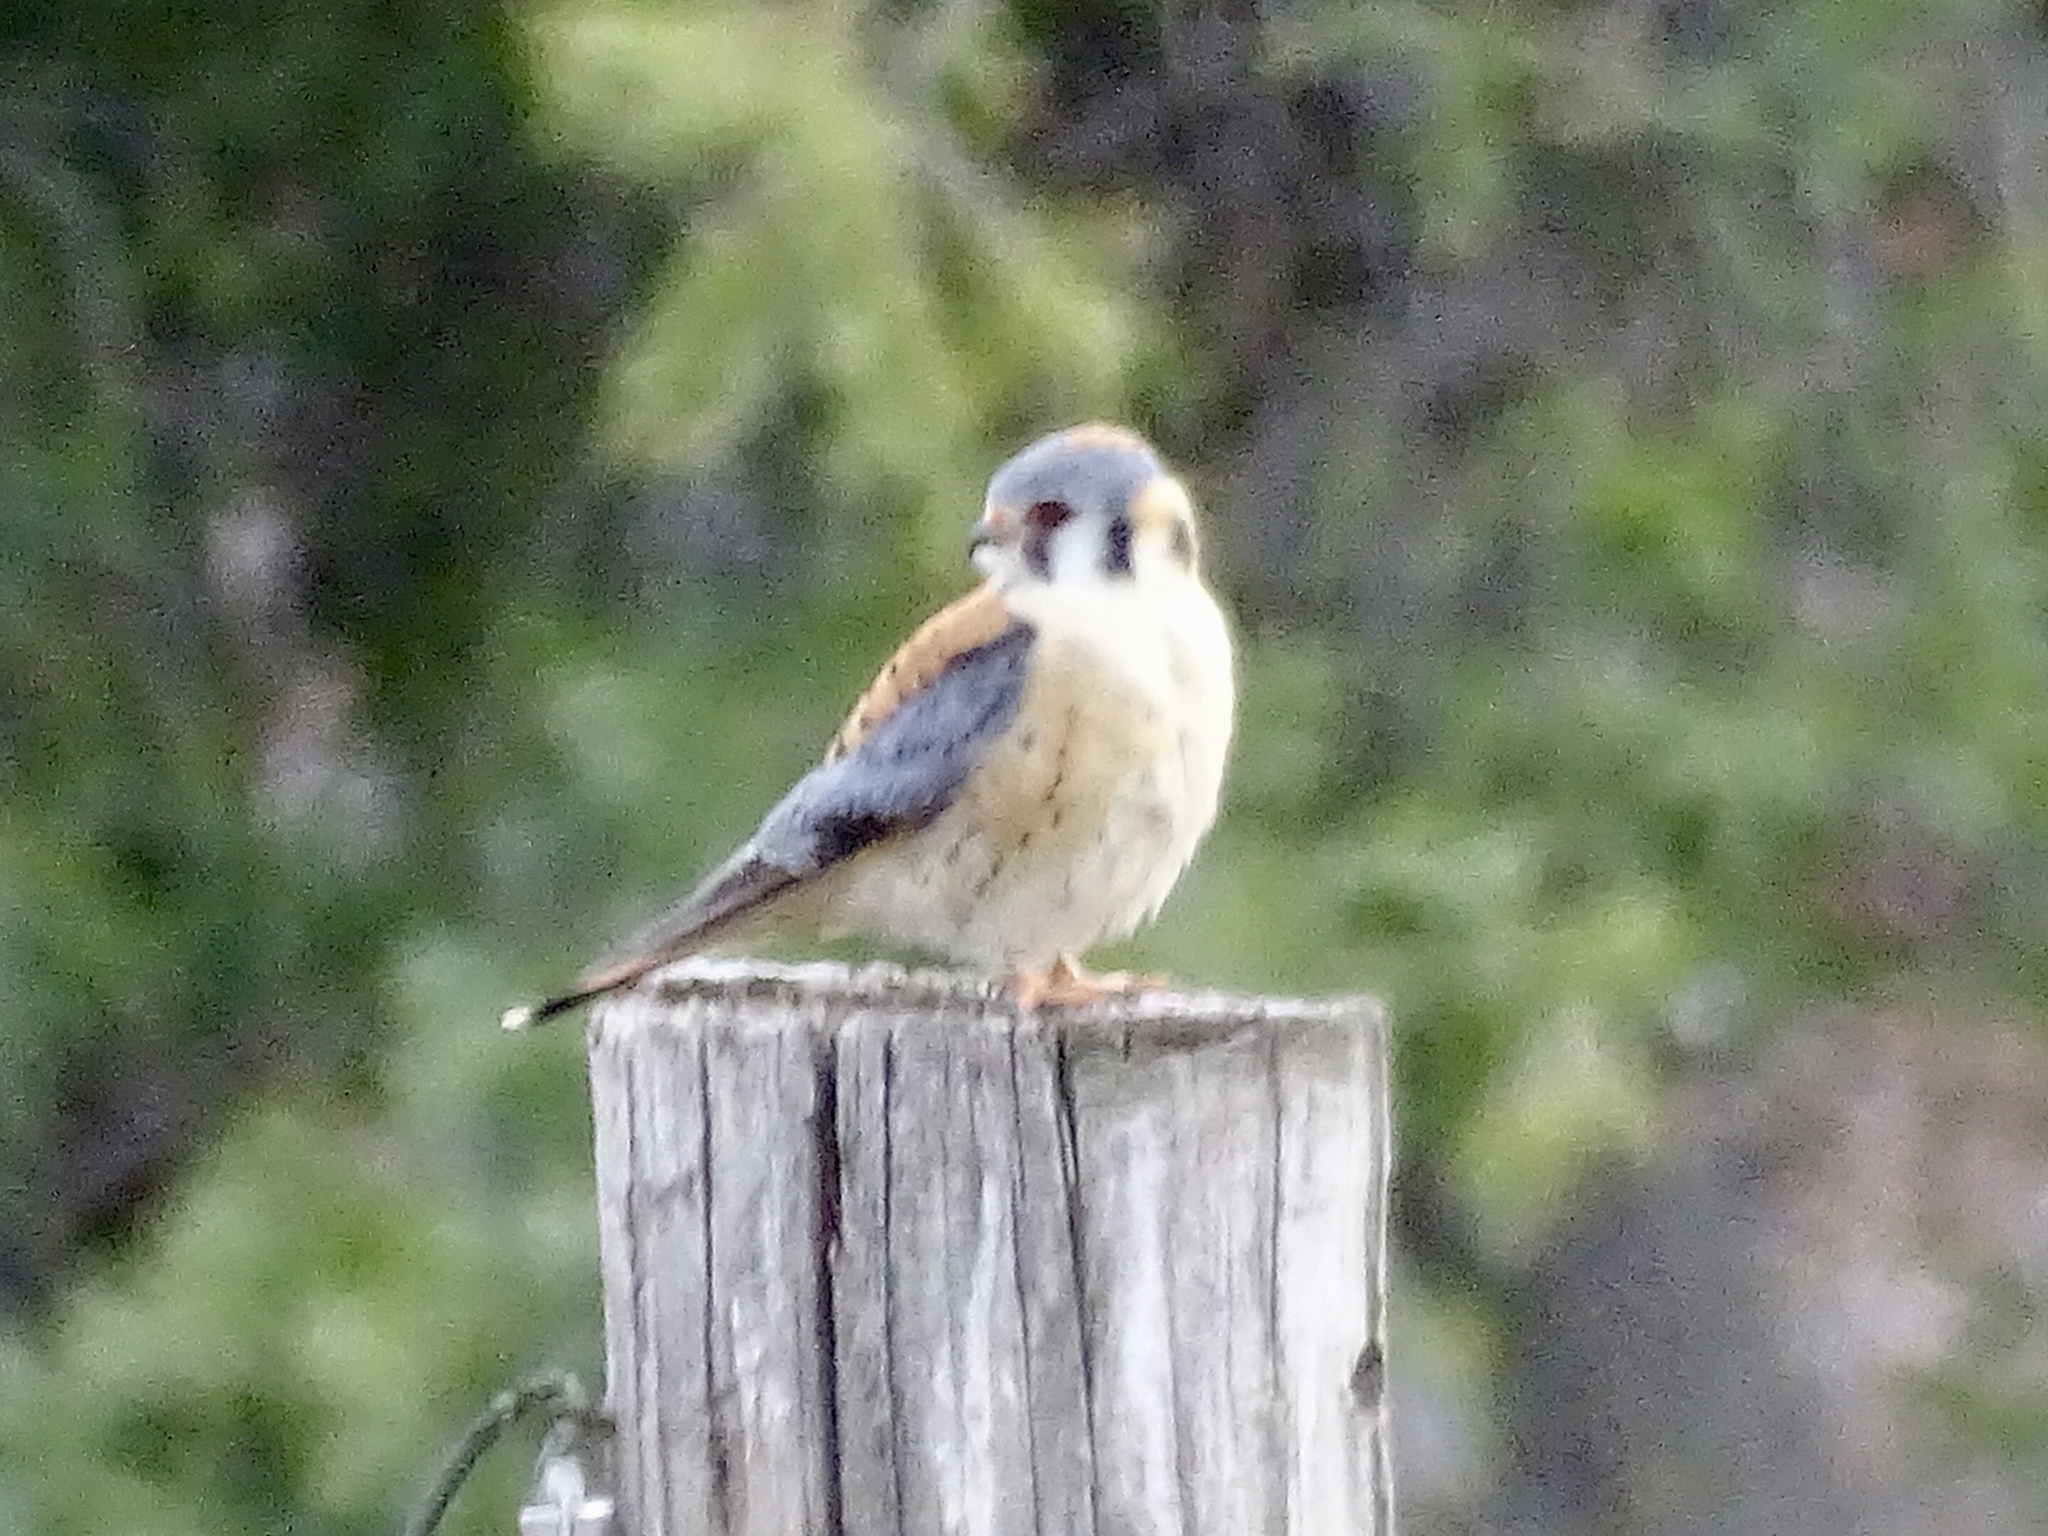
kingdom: Animalia
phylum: Chordata
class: Aves
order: Falconiformes
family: Falconidae
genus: Falco
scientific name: Falco sparverius
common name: American kestrel
